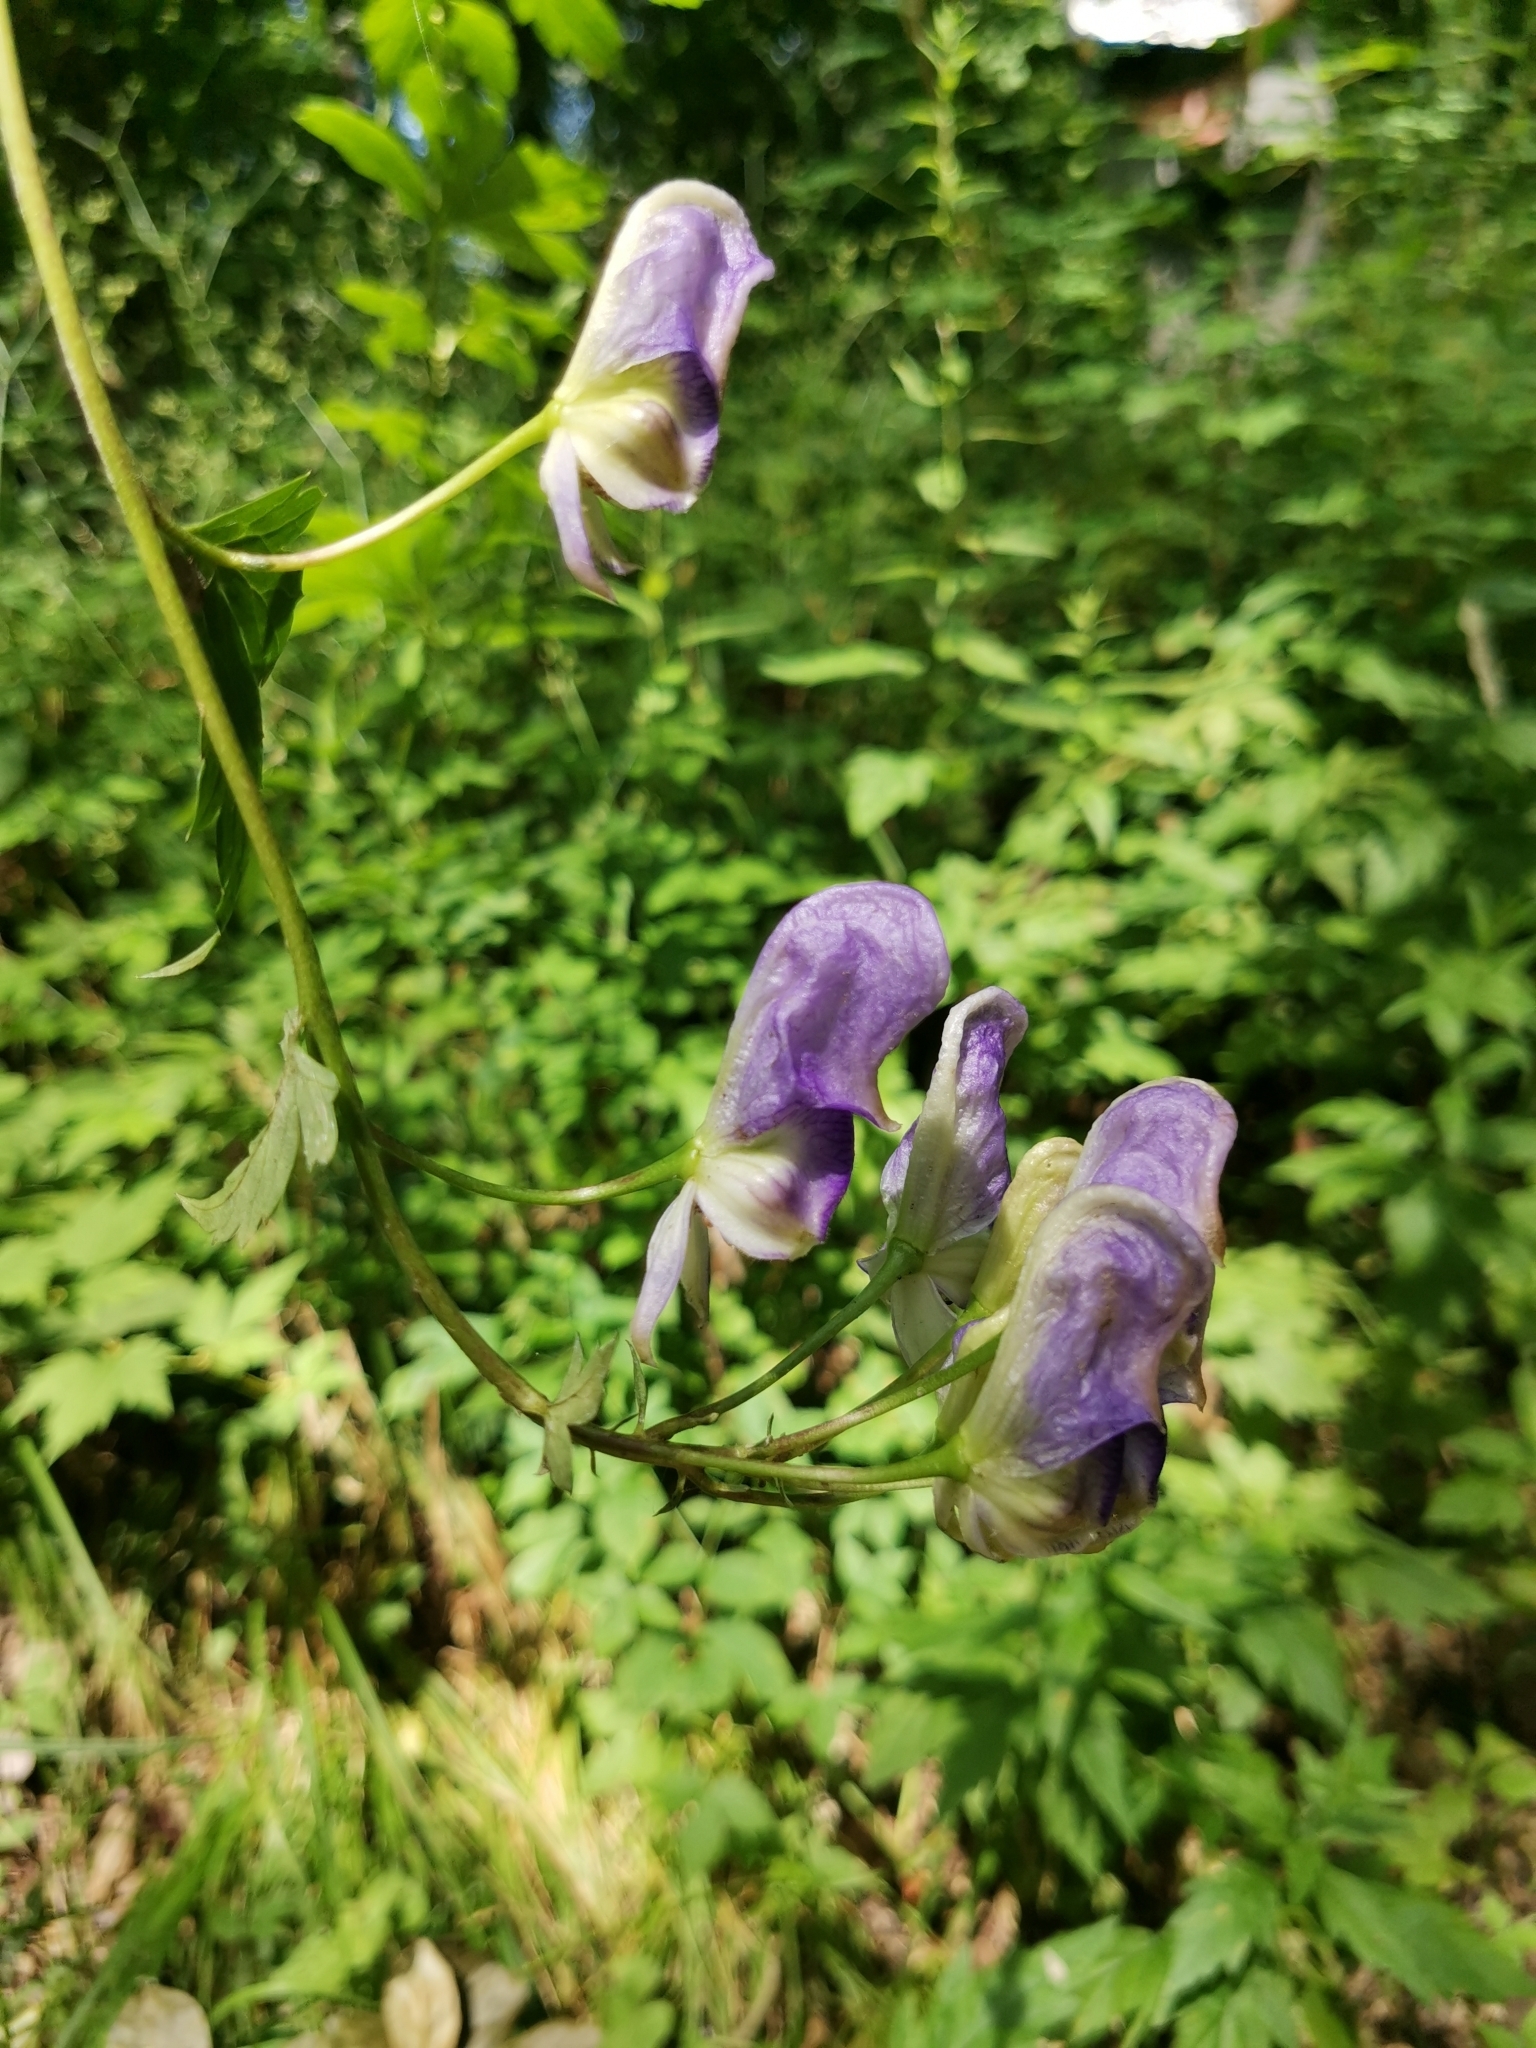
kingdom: Plantae
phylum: Tracheophyta
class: Magnoliopsida
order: Ranunculales
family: Ranunculaceae
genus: Aconitum
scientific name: Aconitum sczukinii
